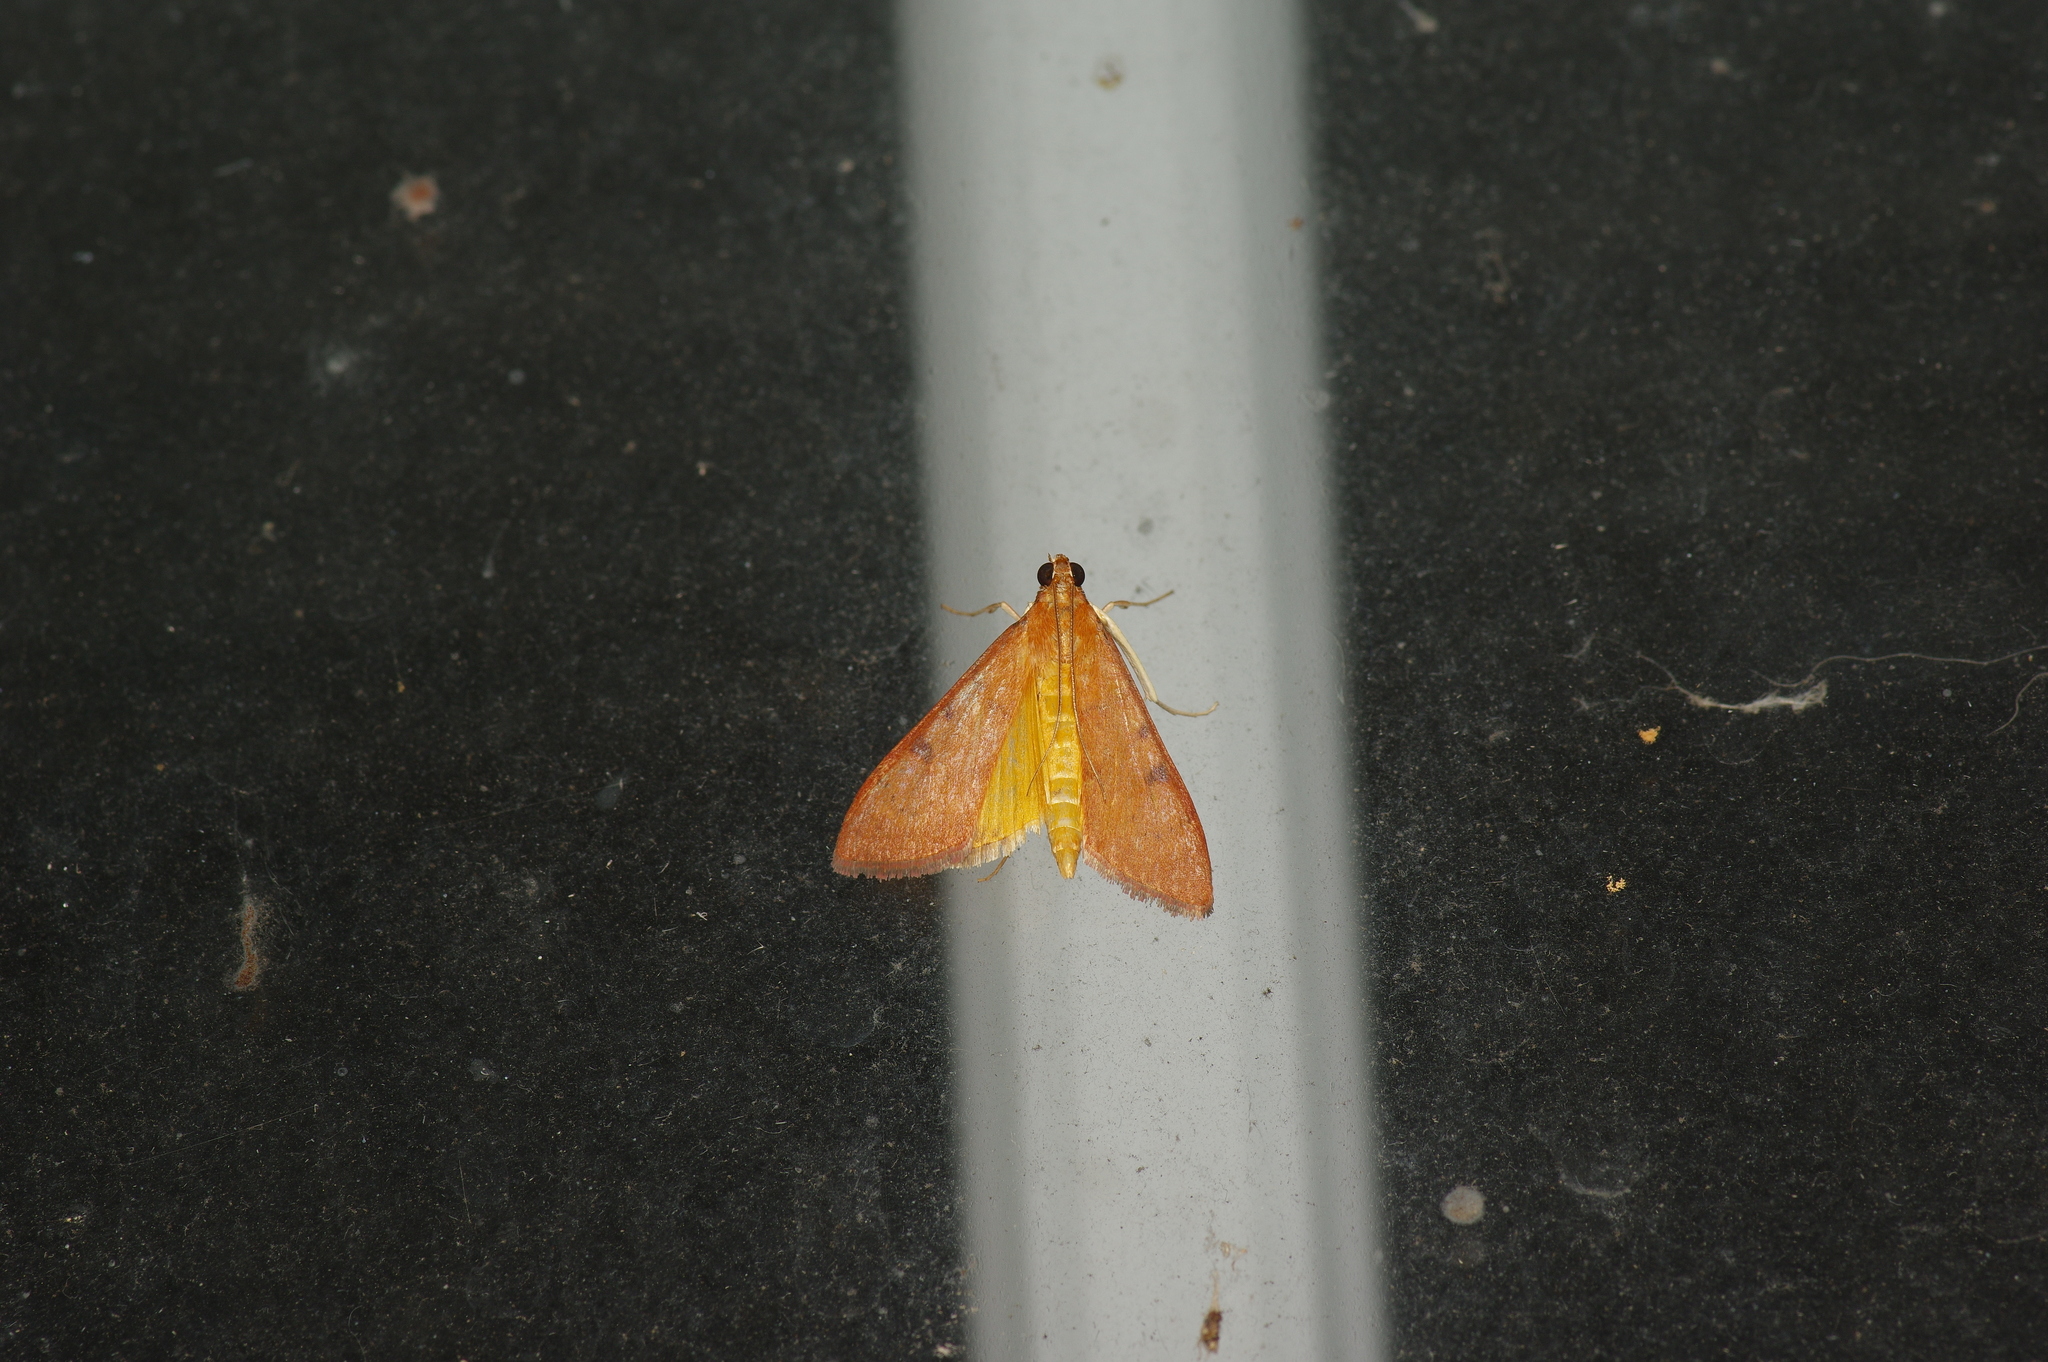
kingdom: Animalia
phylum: Arthropoda
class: Insecta
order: Lepidoptera
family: Crambidae
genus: Uresiphita
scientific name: Uresiphita reversalis
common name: Genista broom moth
